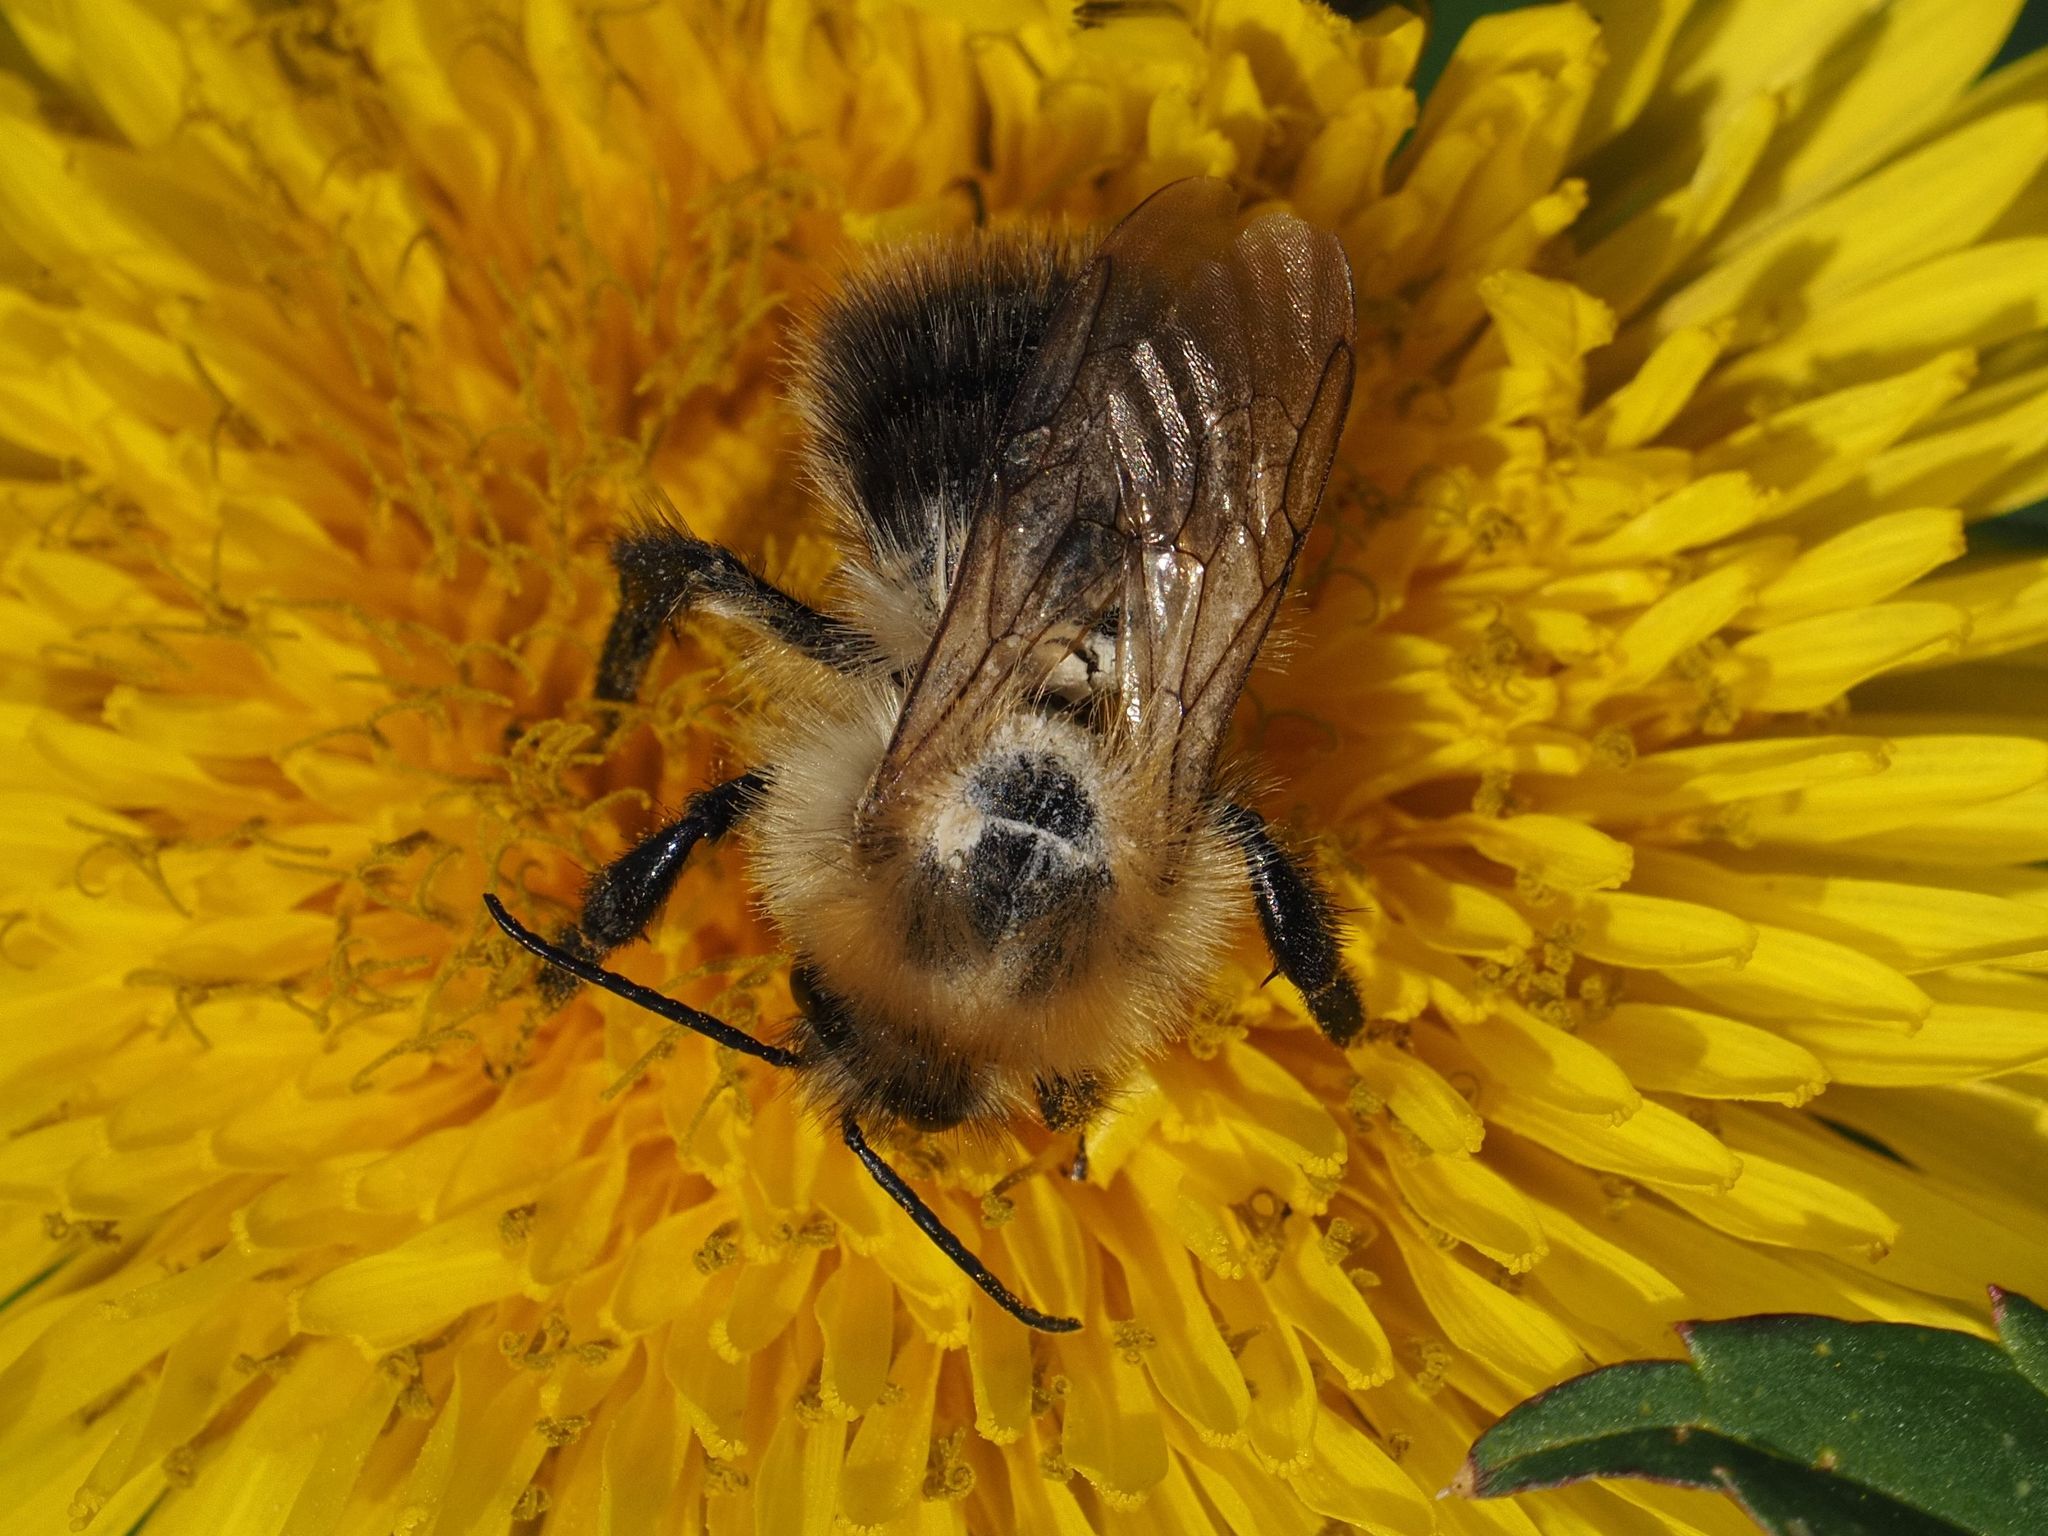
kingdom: Animalia
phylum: Arthropoda
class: Insecta
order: Hymenoptera
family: Apidae
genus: Bombus
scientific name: Bombus pascuorum
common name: Common carder bee
